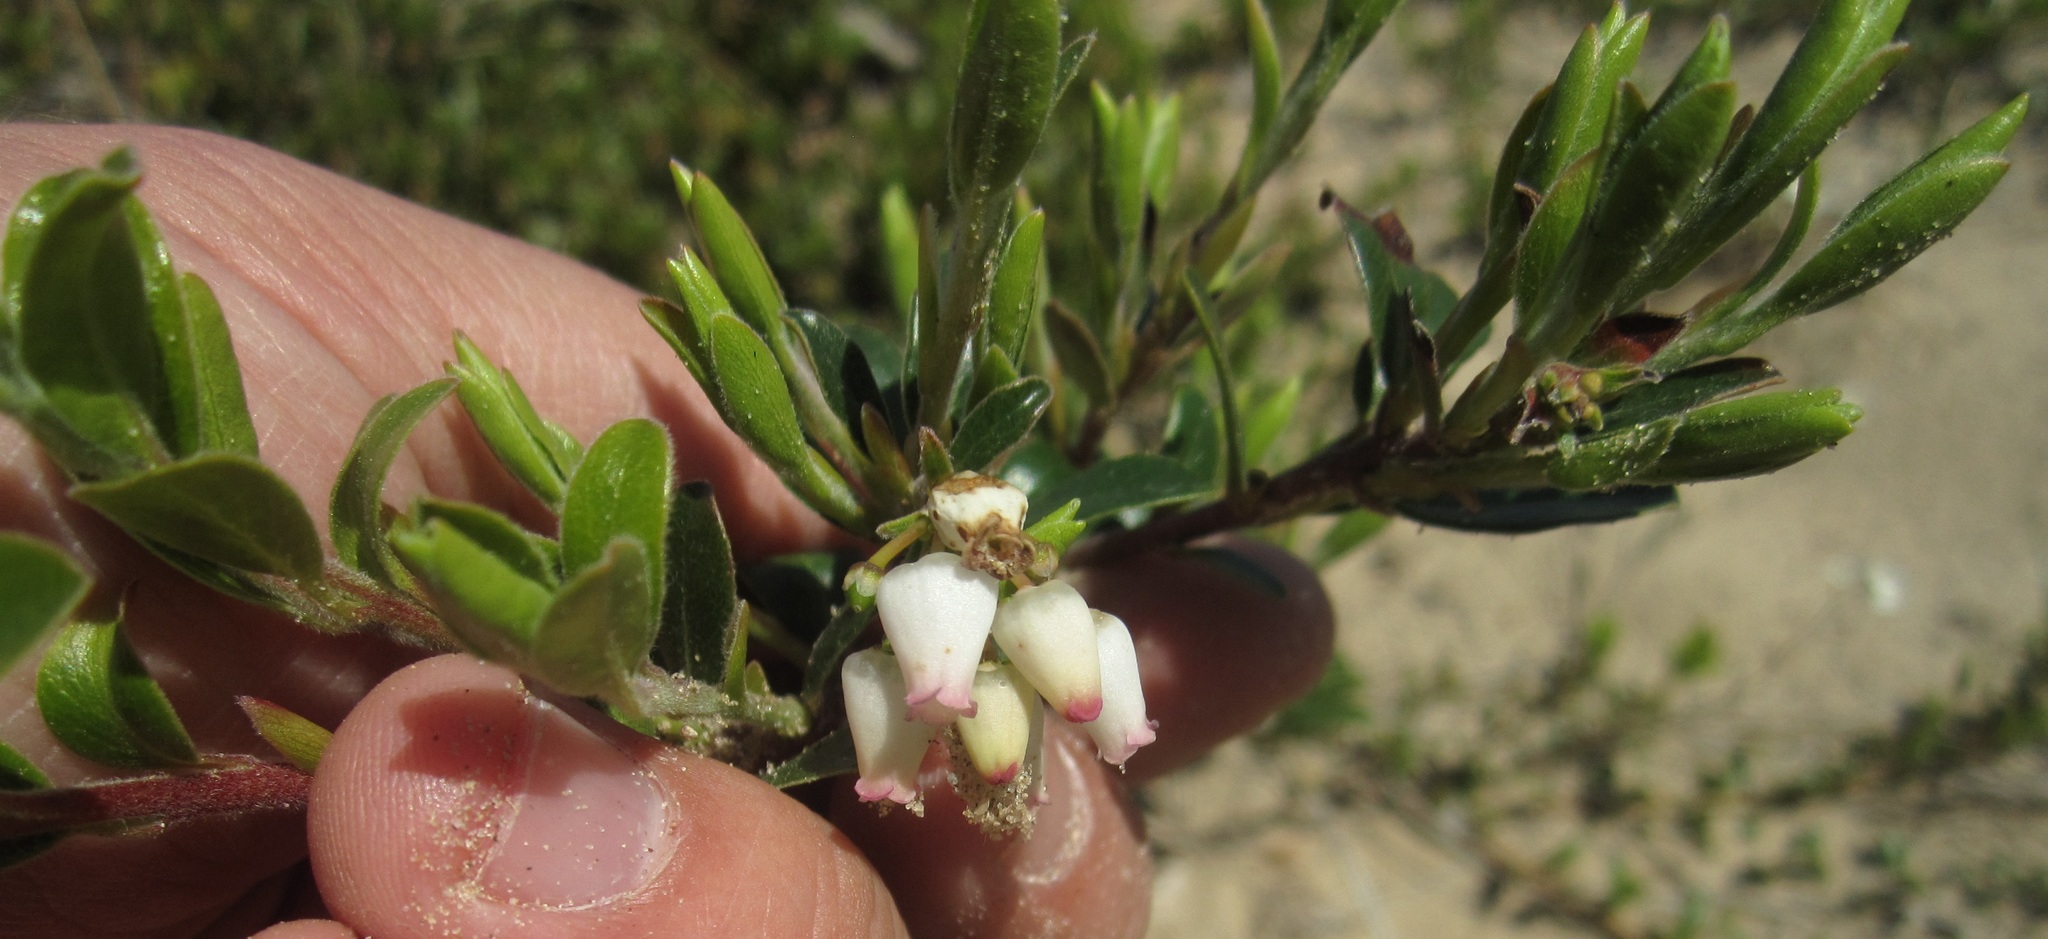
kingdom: Plantae
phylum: Tracheophyta
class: Magnoliopsida
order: Ericales
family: Ericaceae
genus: Arctostaphylos
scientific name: Arctostaphylos uva-ursi
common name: Bearberry
